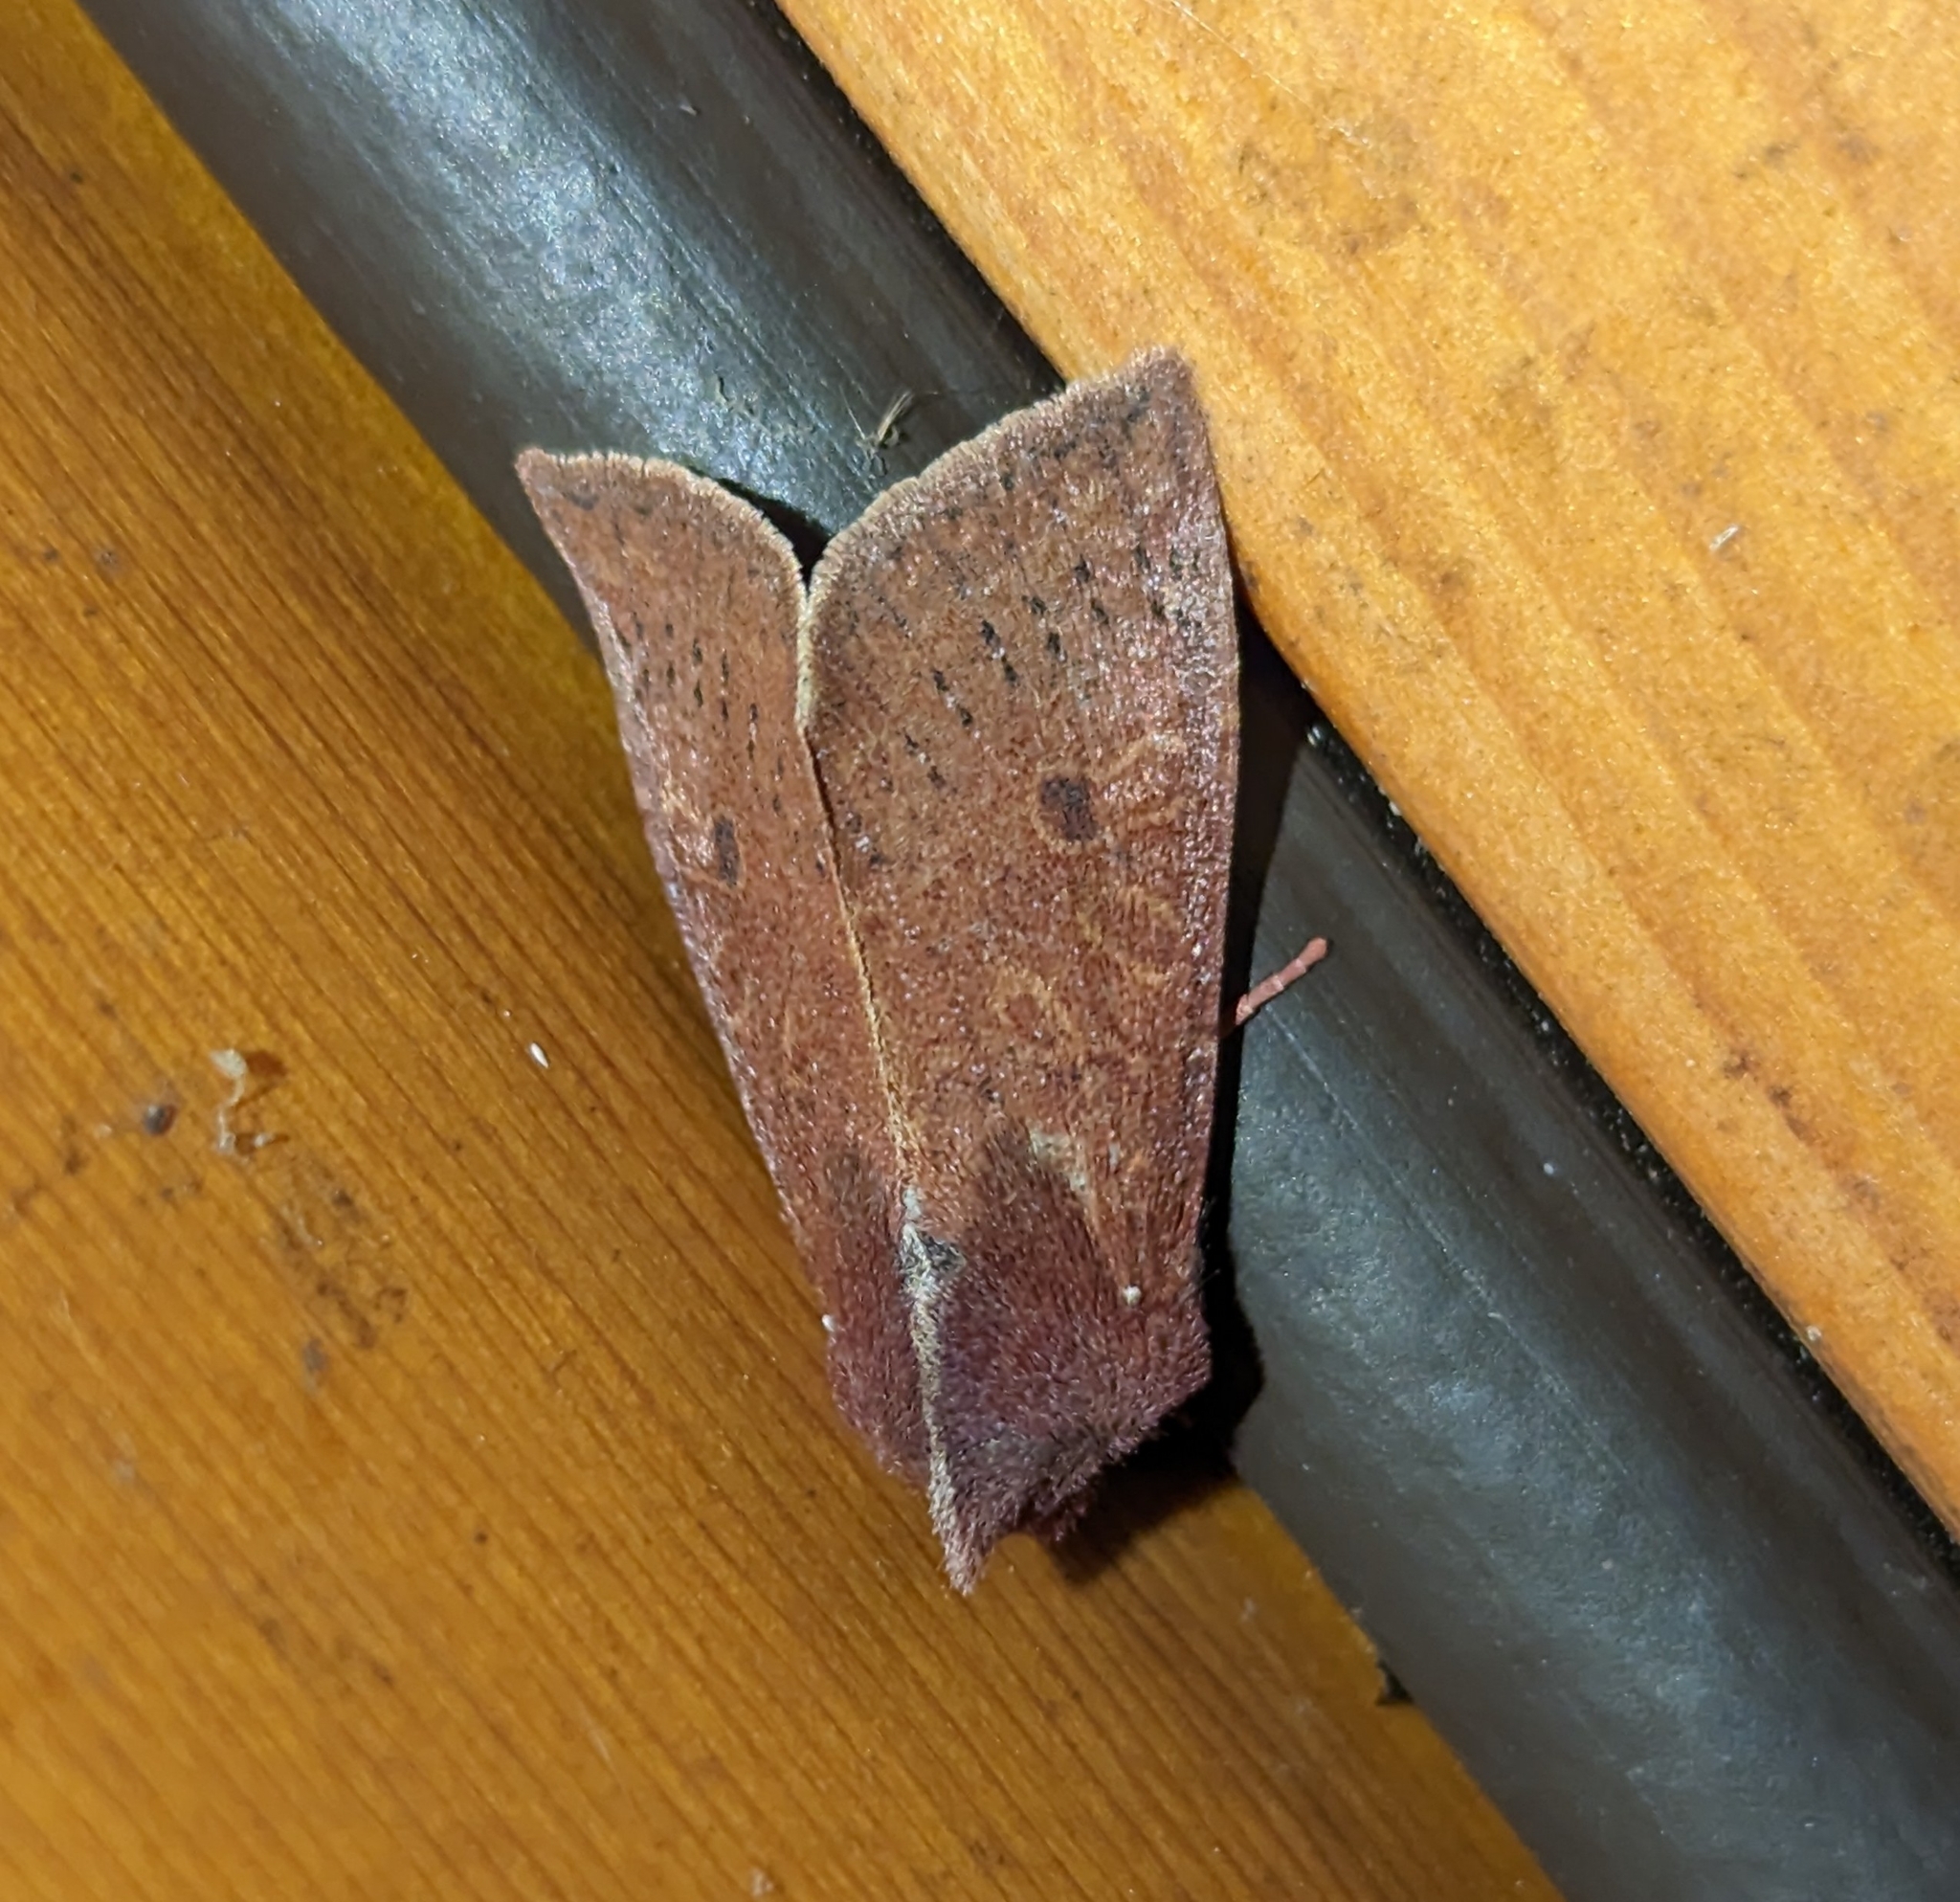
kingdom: Animalia
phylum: Arthropoda
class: Insecta
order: Lepidoptera
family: Noctuidae
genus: Orthosia
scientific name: Orthosia transparens
